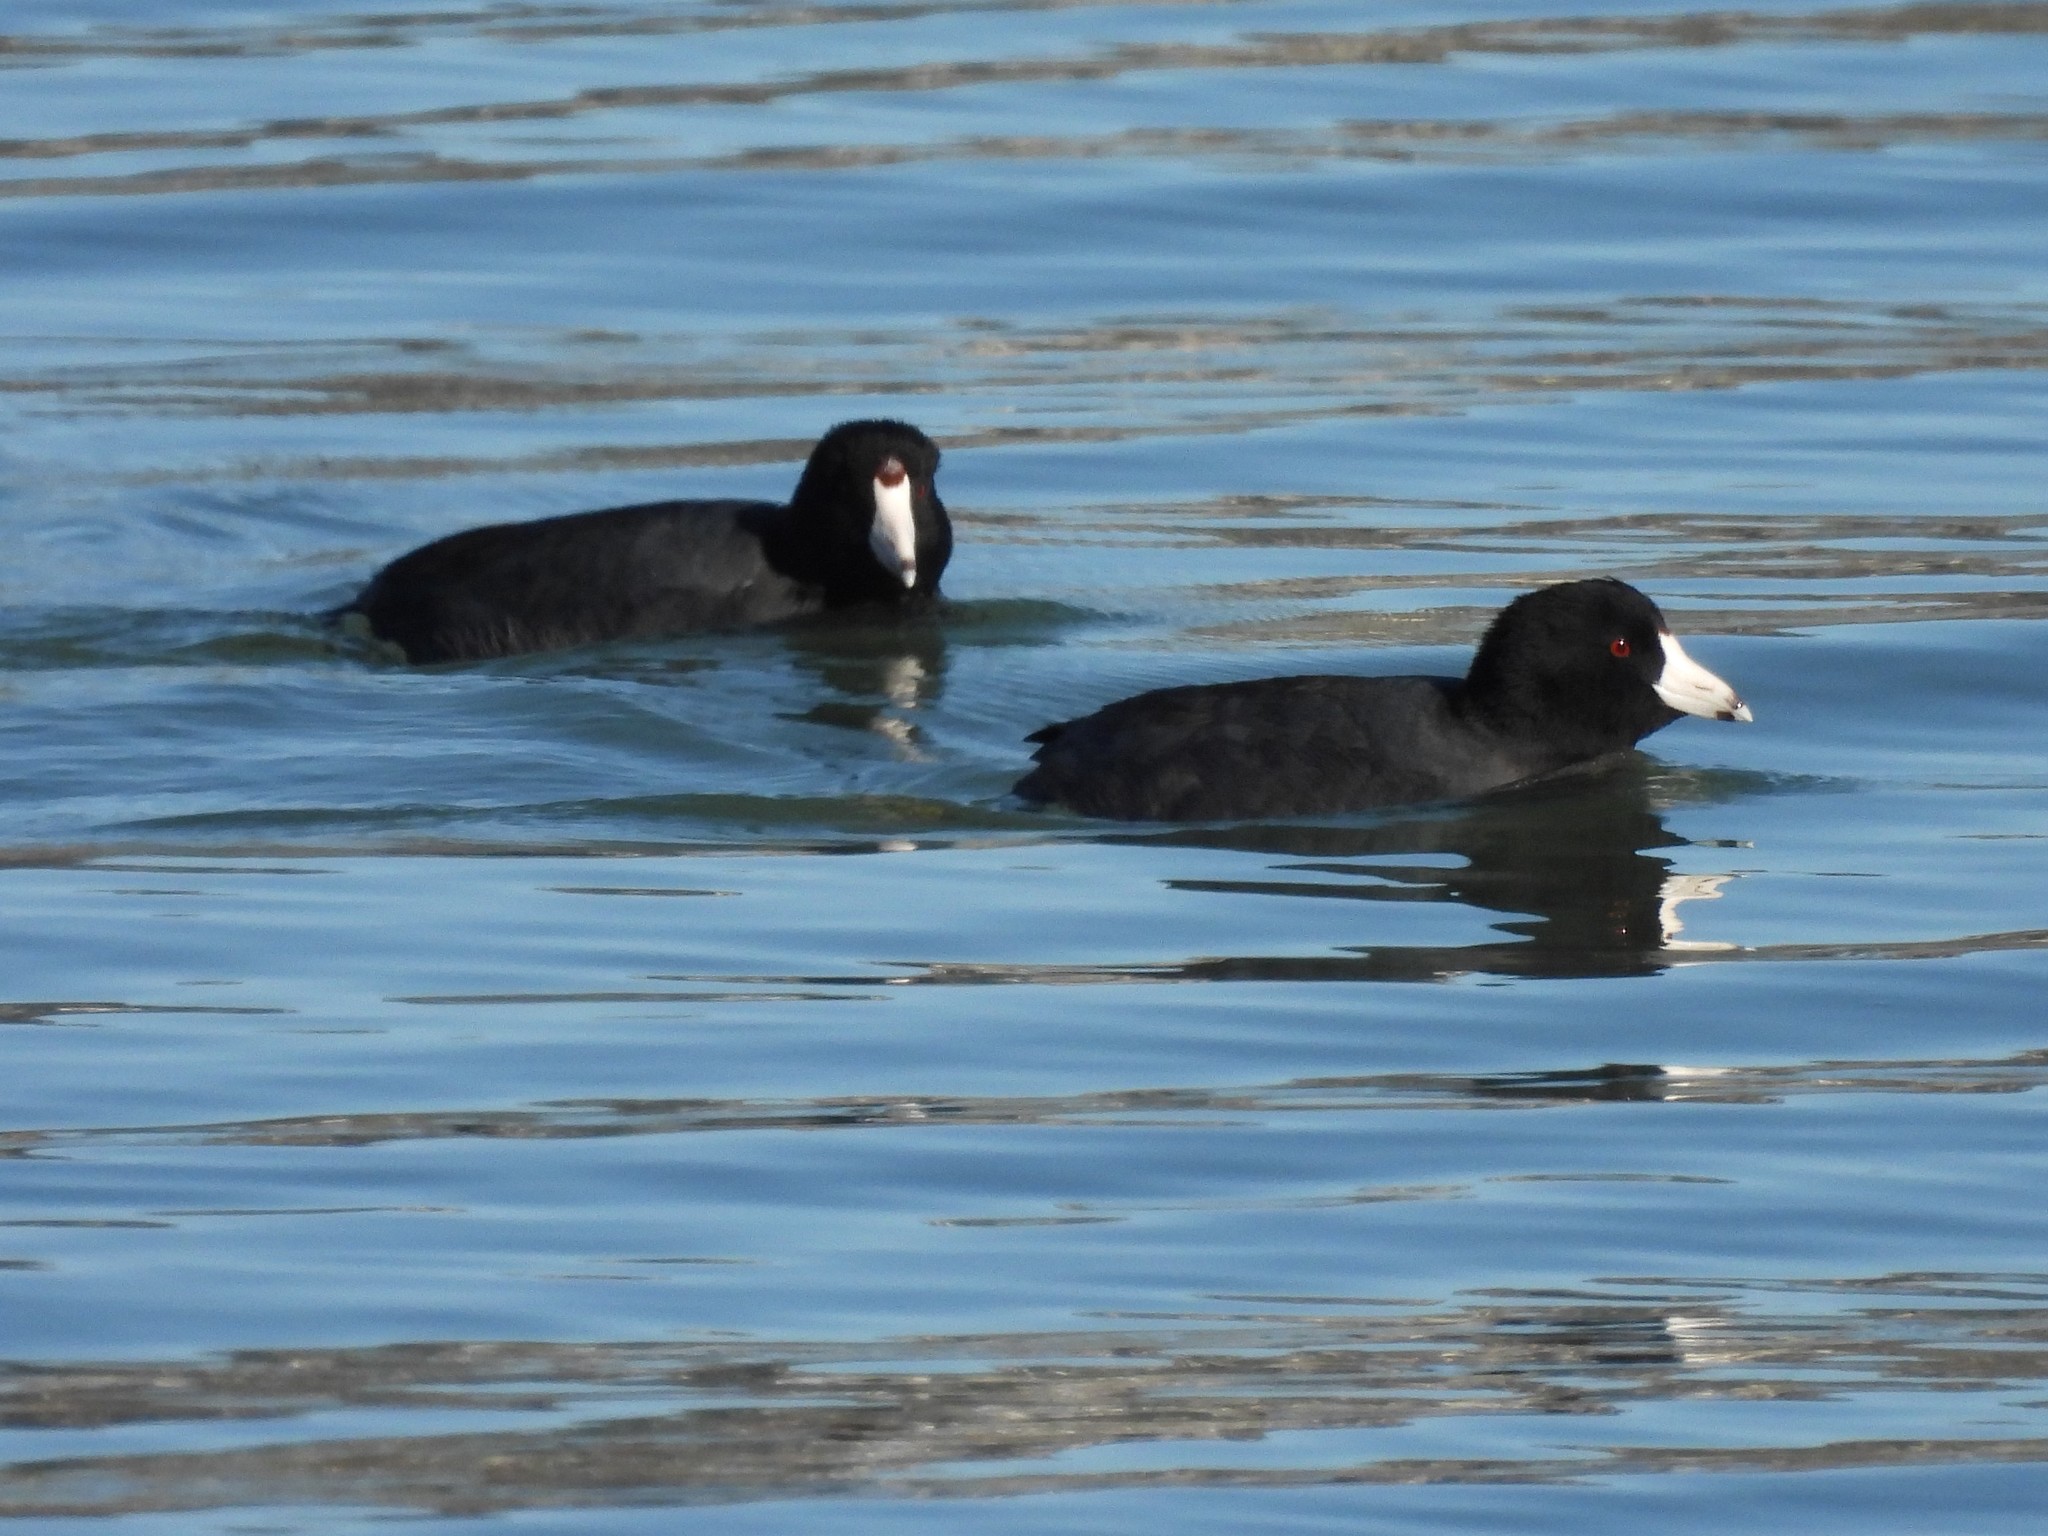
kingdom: Animalia
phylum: Chordata
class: Aves
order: Gruiformes
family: Rallidae
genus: Fulica
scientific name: Fulica americana
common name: American coot
